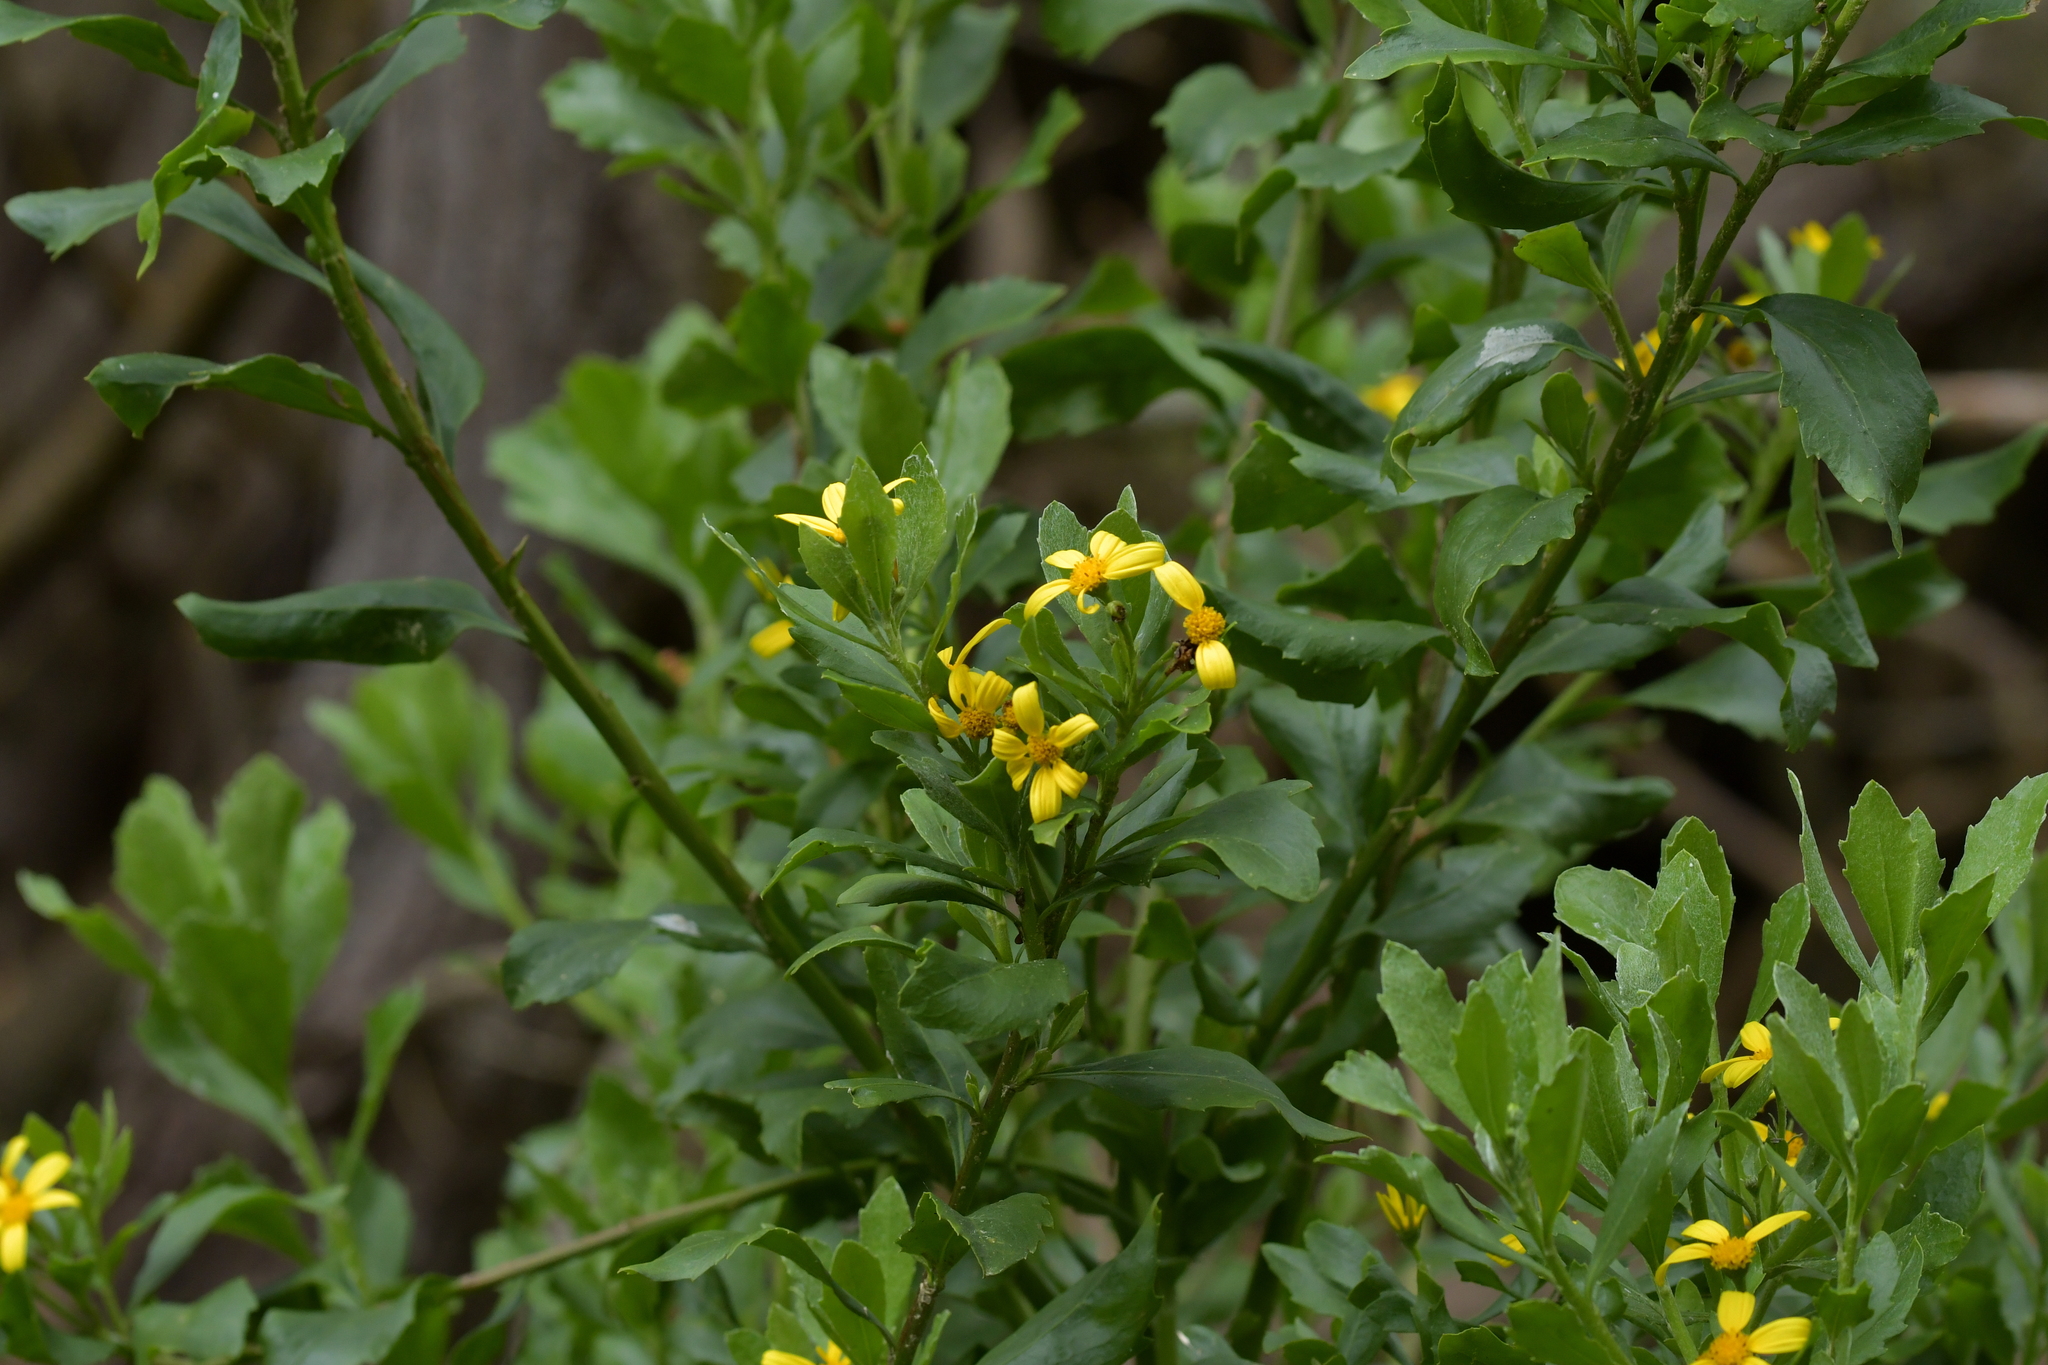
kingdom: Plantae
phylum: Tracheophyta
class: Magnoliopsida
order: Asterales
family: Asteraceae
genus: Osteospermum
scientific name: Osteospermum moniliferum
